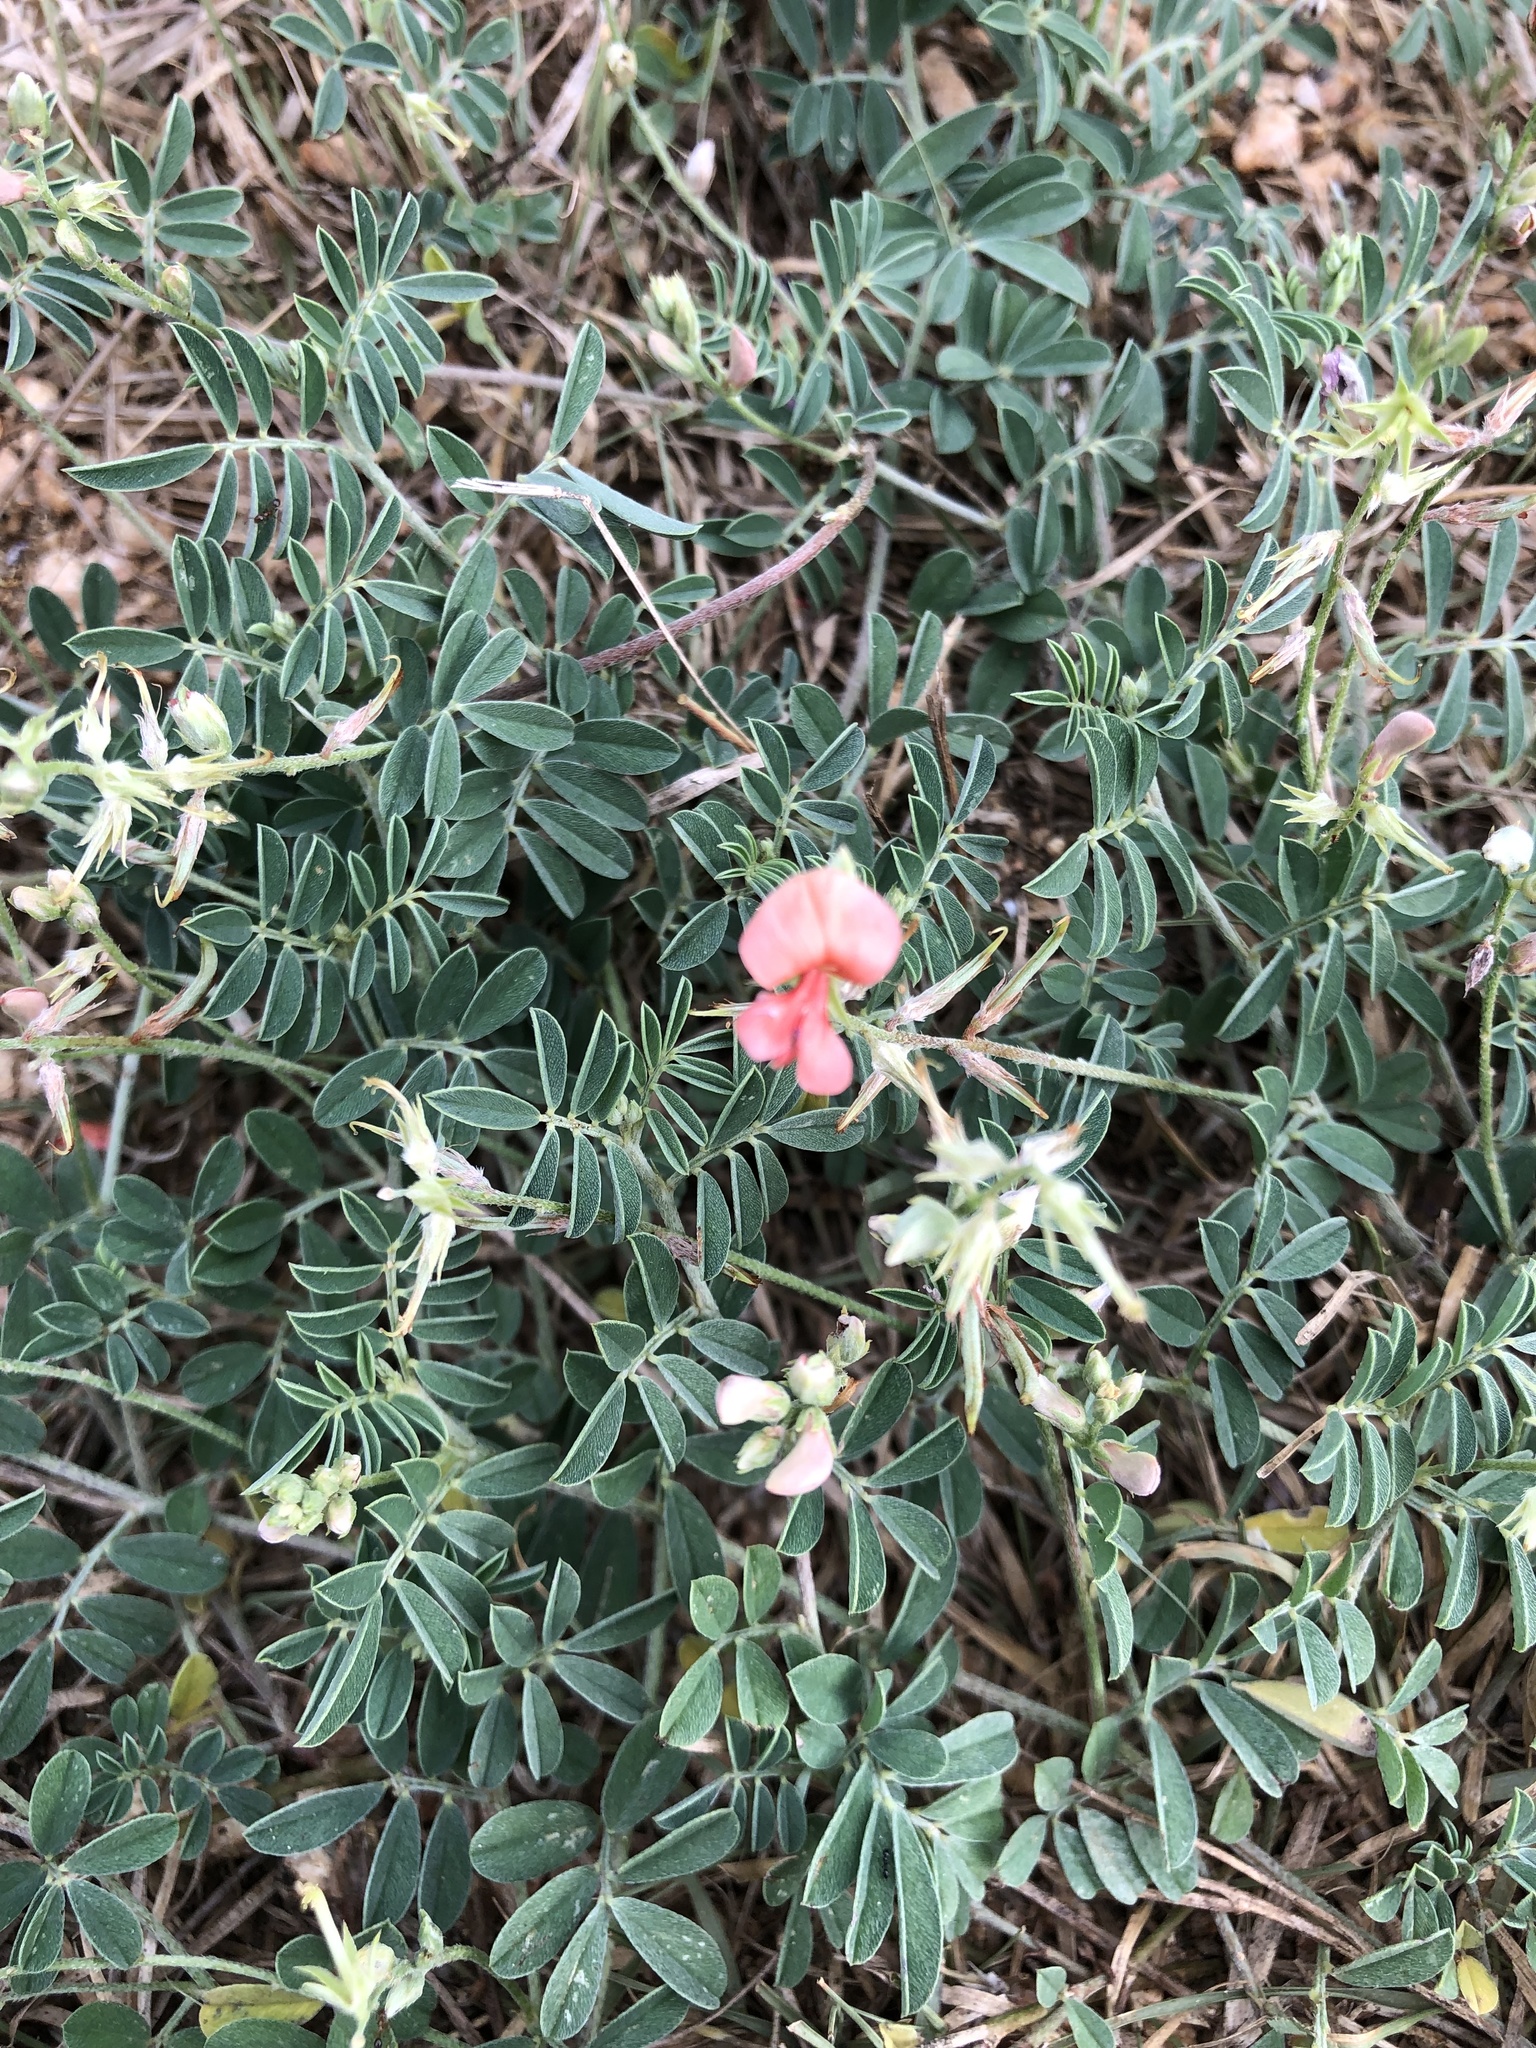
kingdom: Plantae
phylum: Tracheophyta
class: Magnoliopsida
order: Fabales
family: Fabaceae
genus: Indigofera
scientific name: Indigofera miniata
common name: Coast indigo
